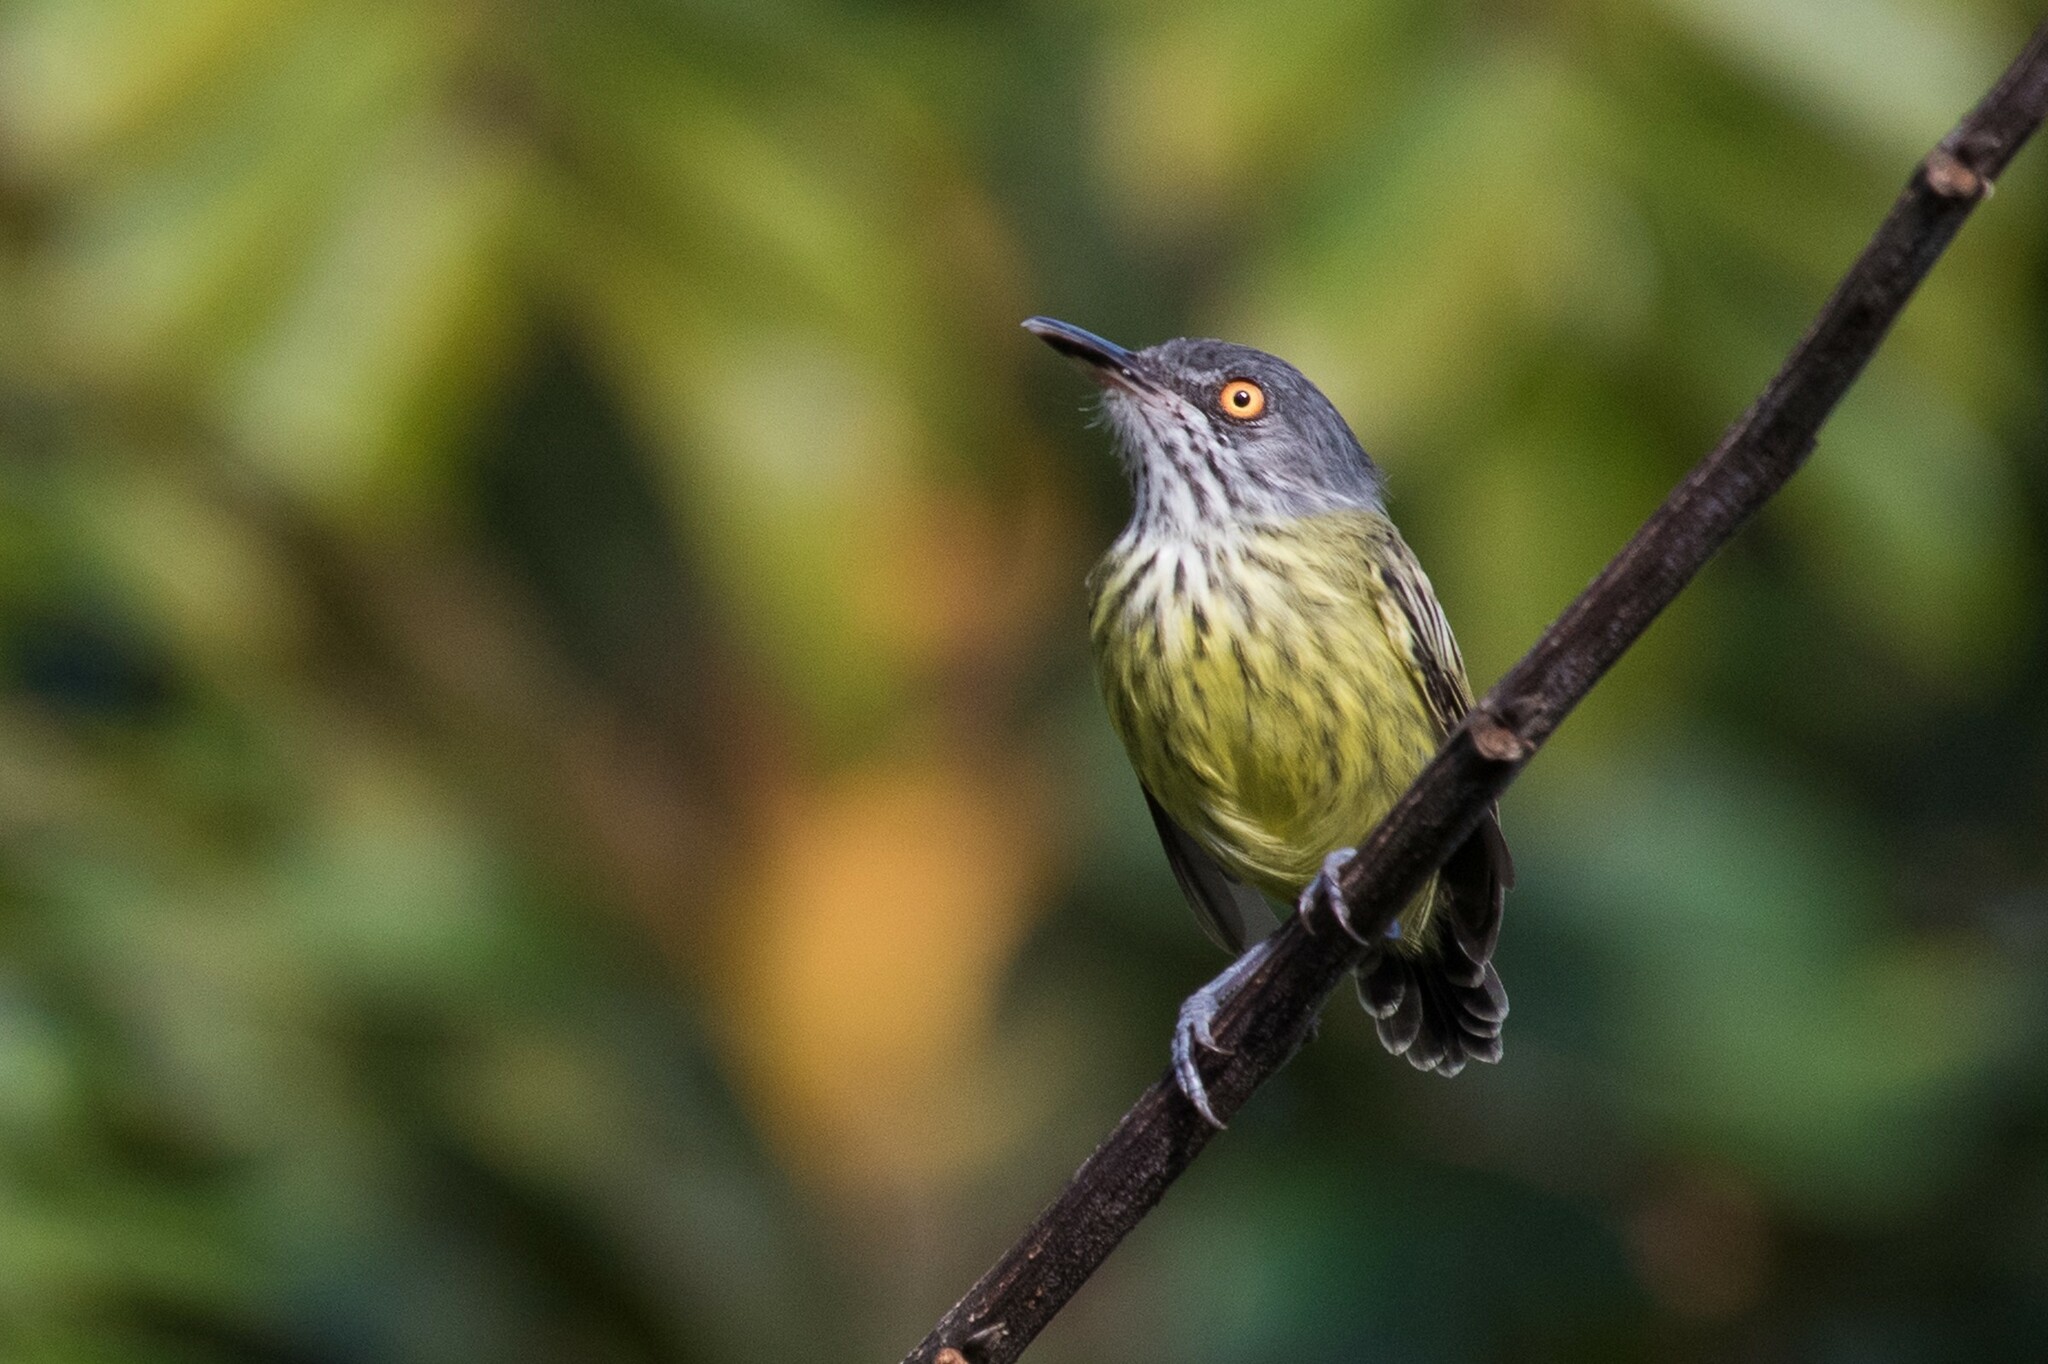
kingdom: Animalia
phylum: Chordata
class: Aves
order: Passeriformes
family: Tyrannidae
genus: Todirostrum
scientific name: Todirostrum maculatum
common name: Spotted tody-flycatcher
